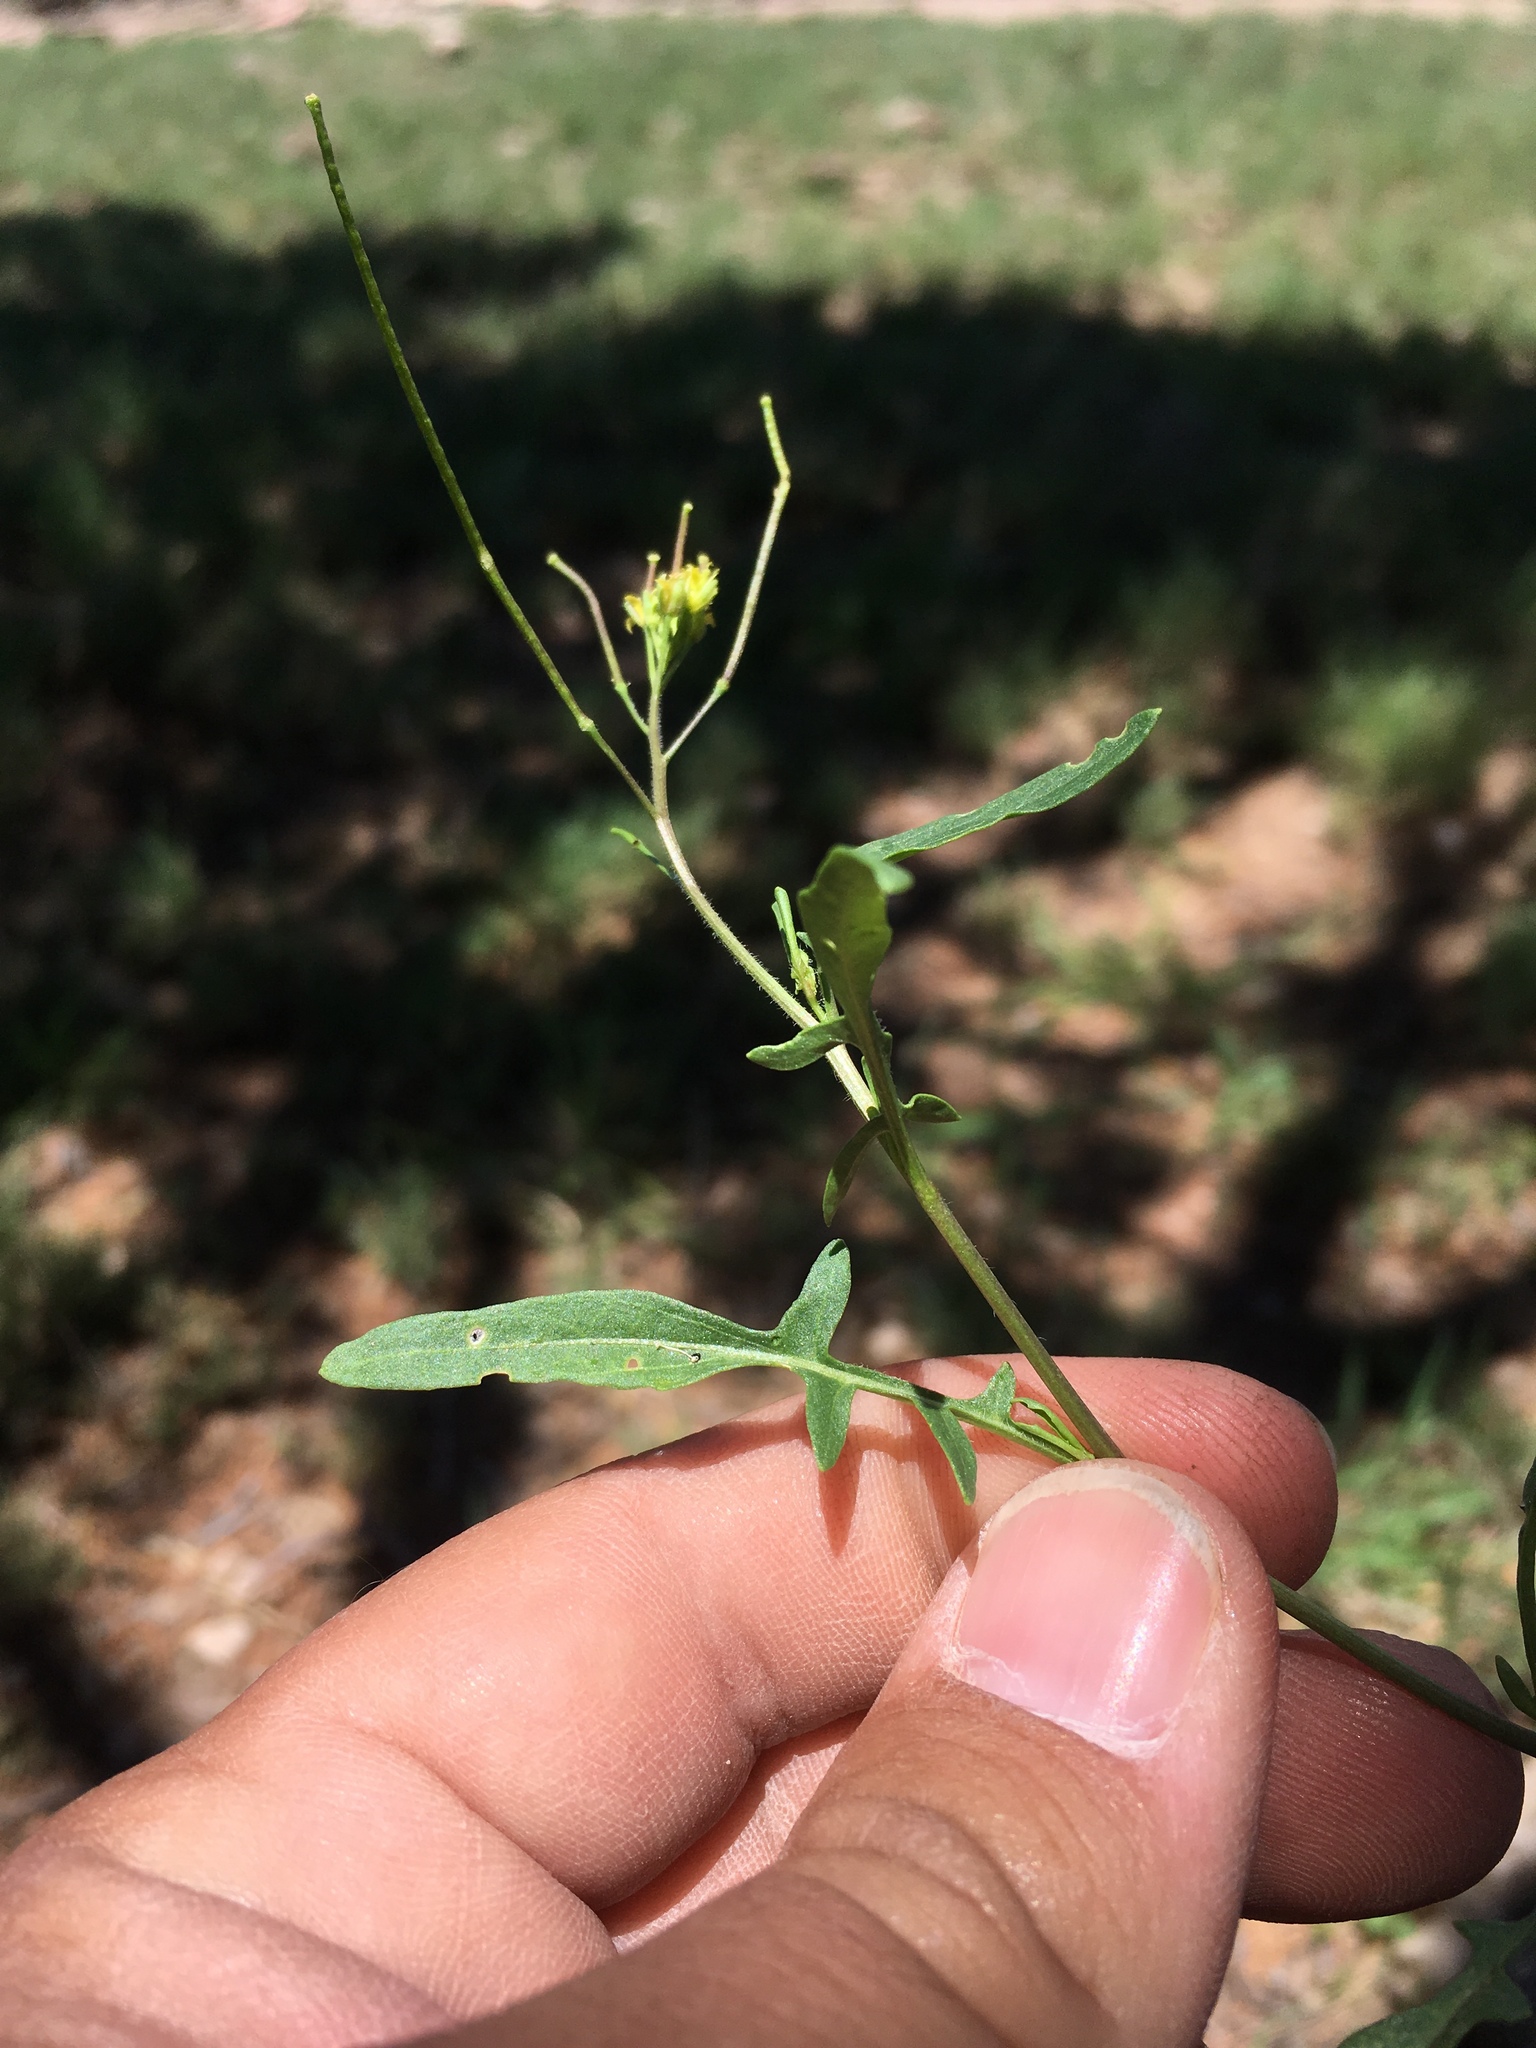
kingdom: Plantae
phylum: Tracheophyta
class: Magnoliopsida
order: Brassicales
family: Brassicaceae
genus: Sisymbrium
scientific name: Sisymbrium irio
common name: London rocket
